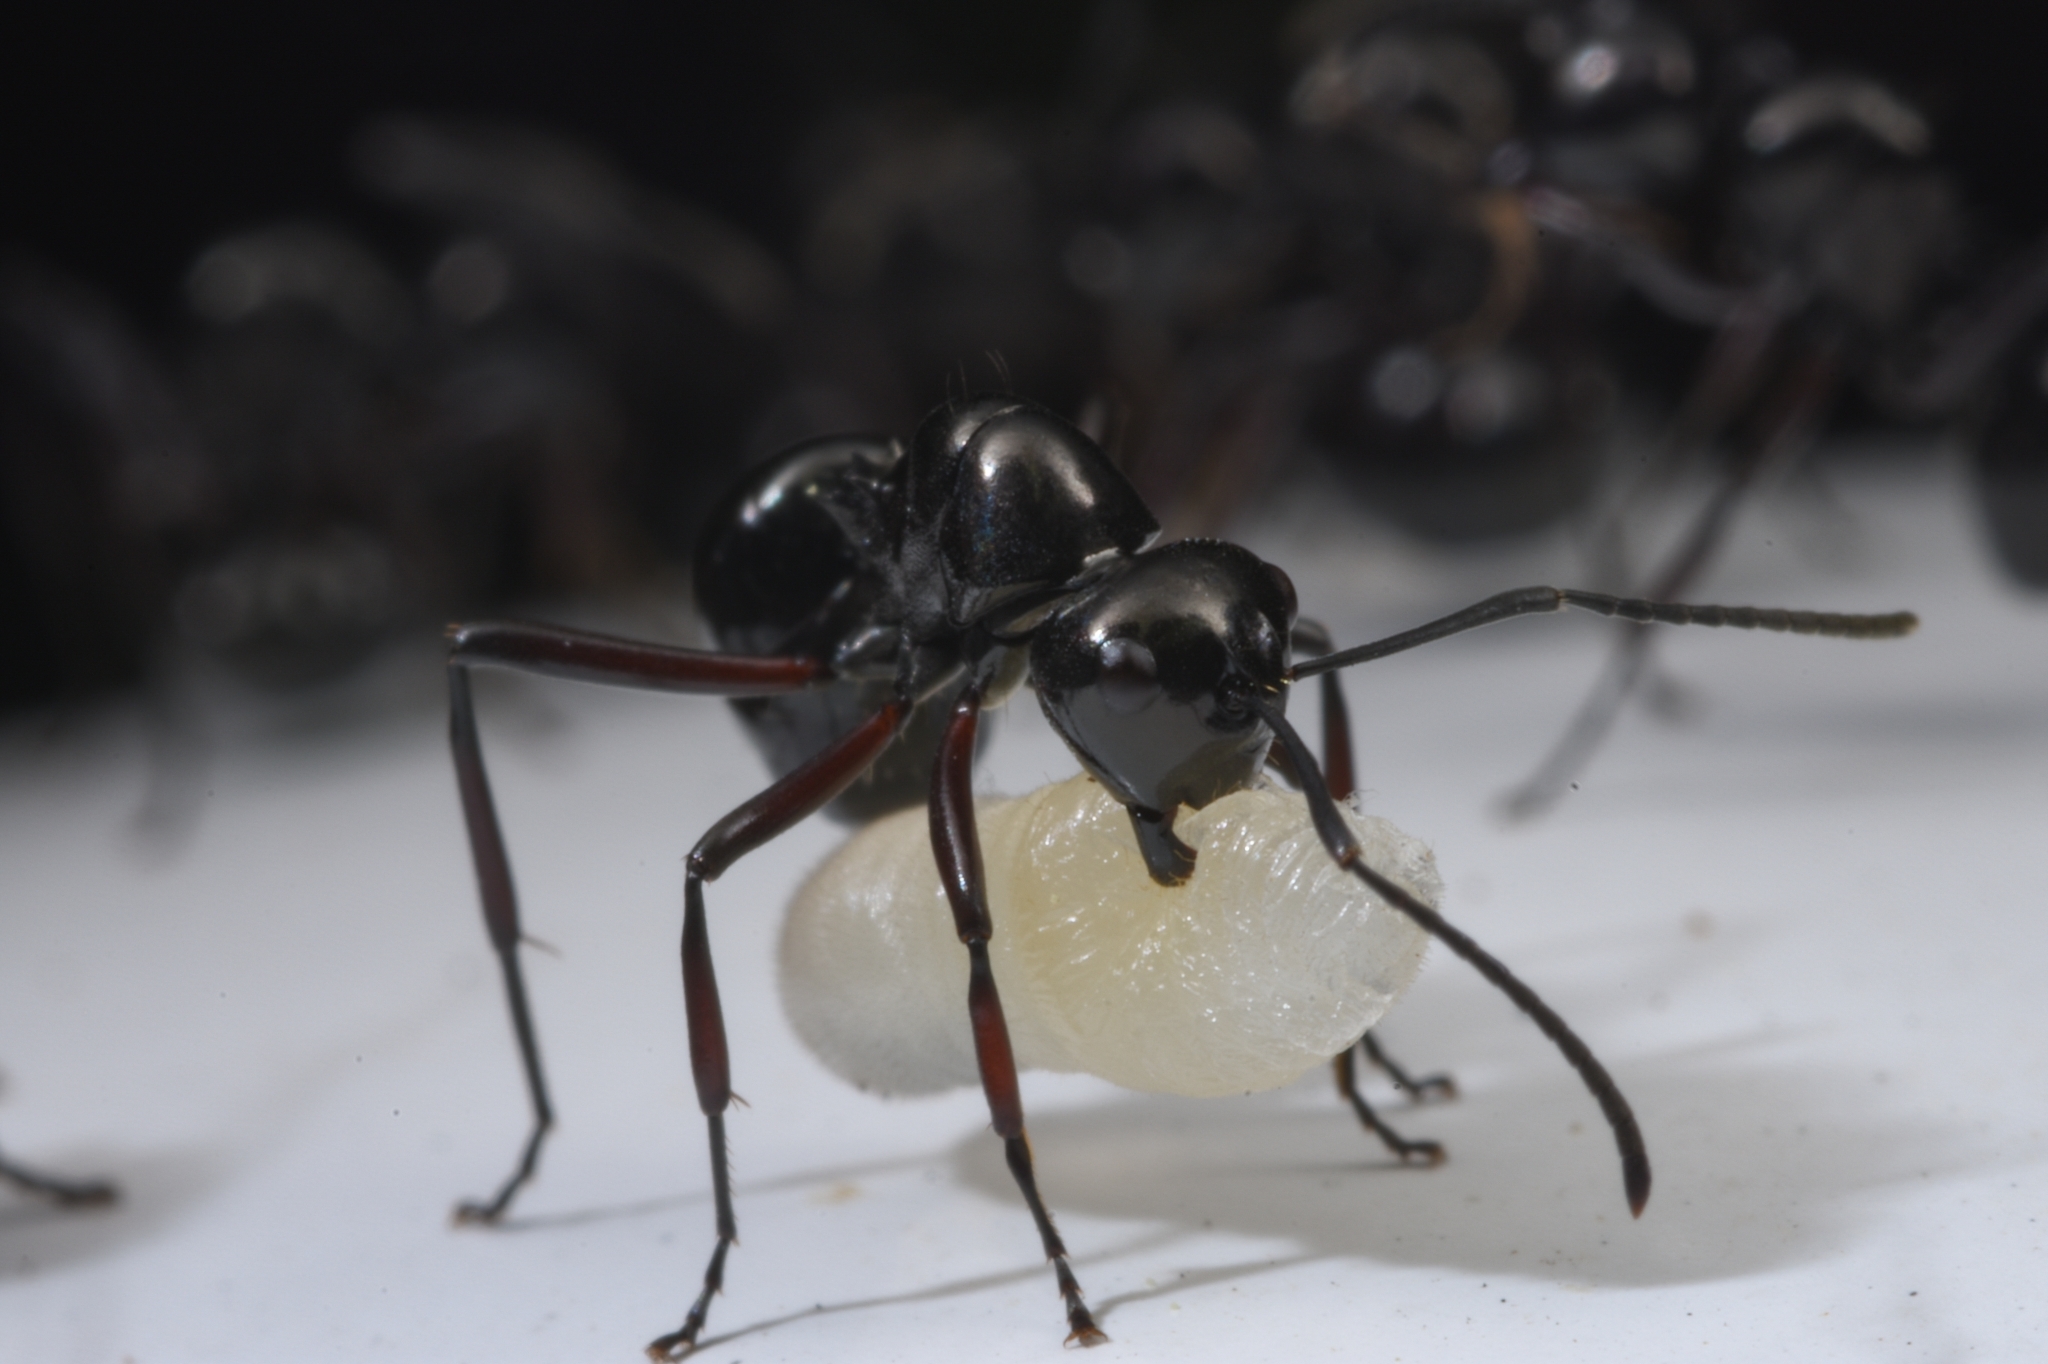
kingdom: Animalia
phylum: Arthropoda
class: Insecta
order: Hymenoptera
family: Formicidae
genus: Polyrhachis
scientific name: Polyrhachis australis
